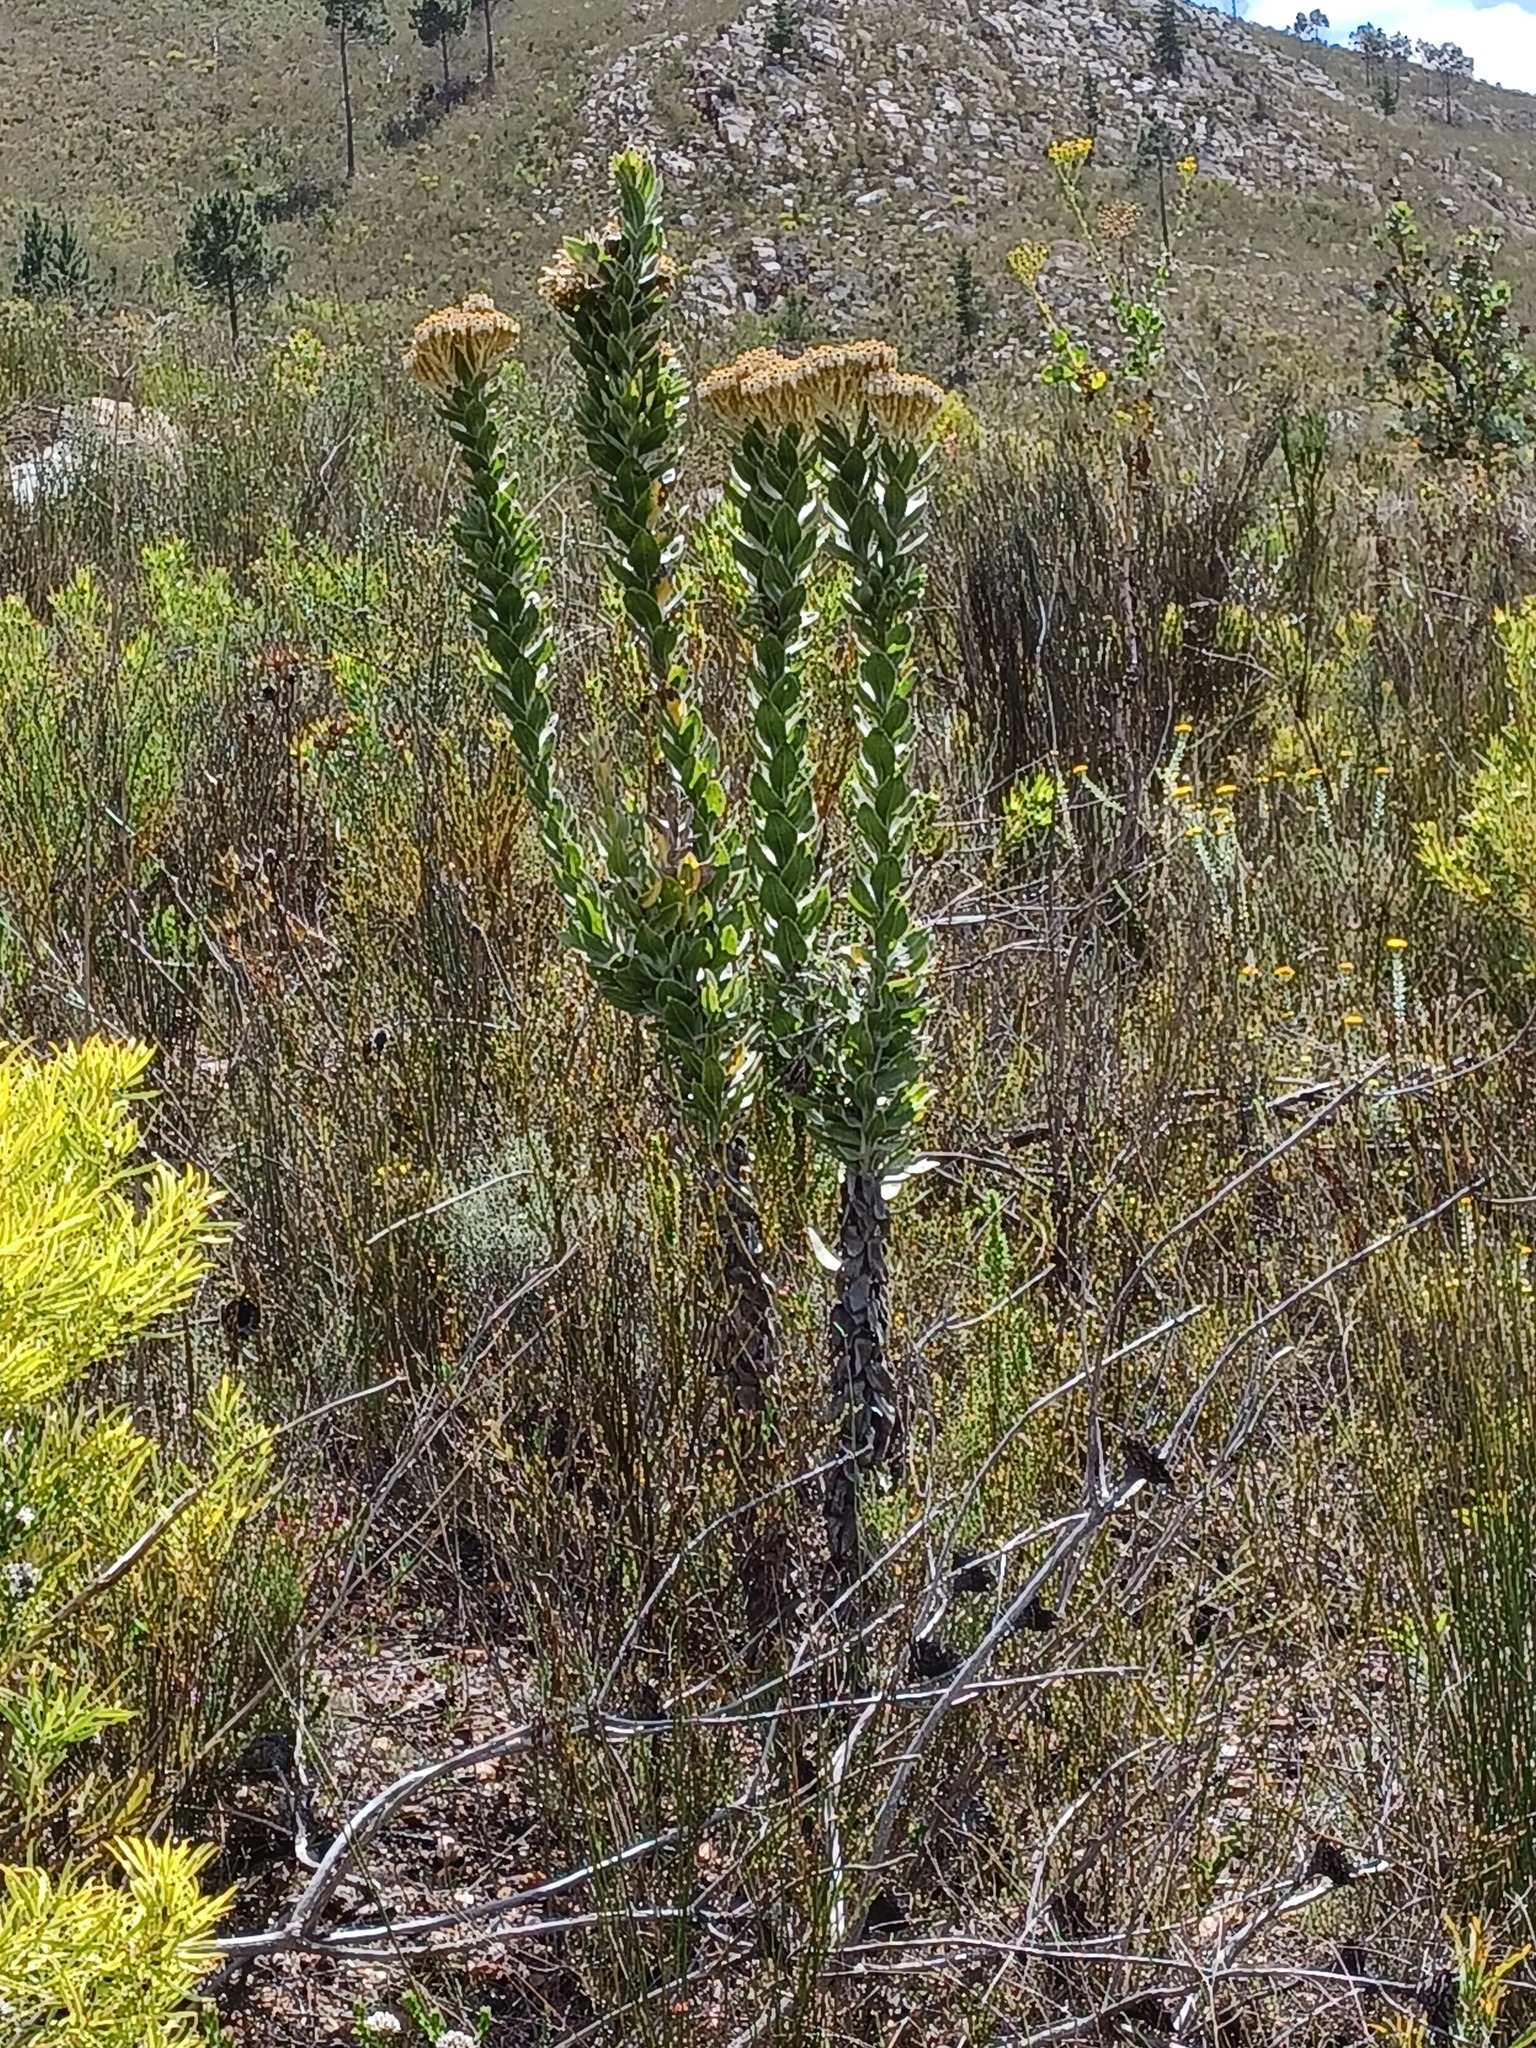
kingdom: Plantae
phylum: Tracheophyta
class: Magnoliopsida
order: Asterales
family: Asteraceae
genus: Syncarpha
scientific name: Syncarpha milleflora
